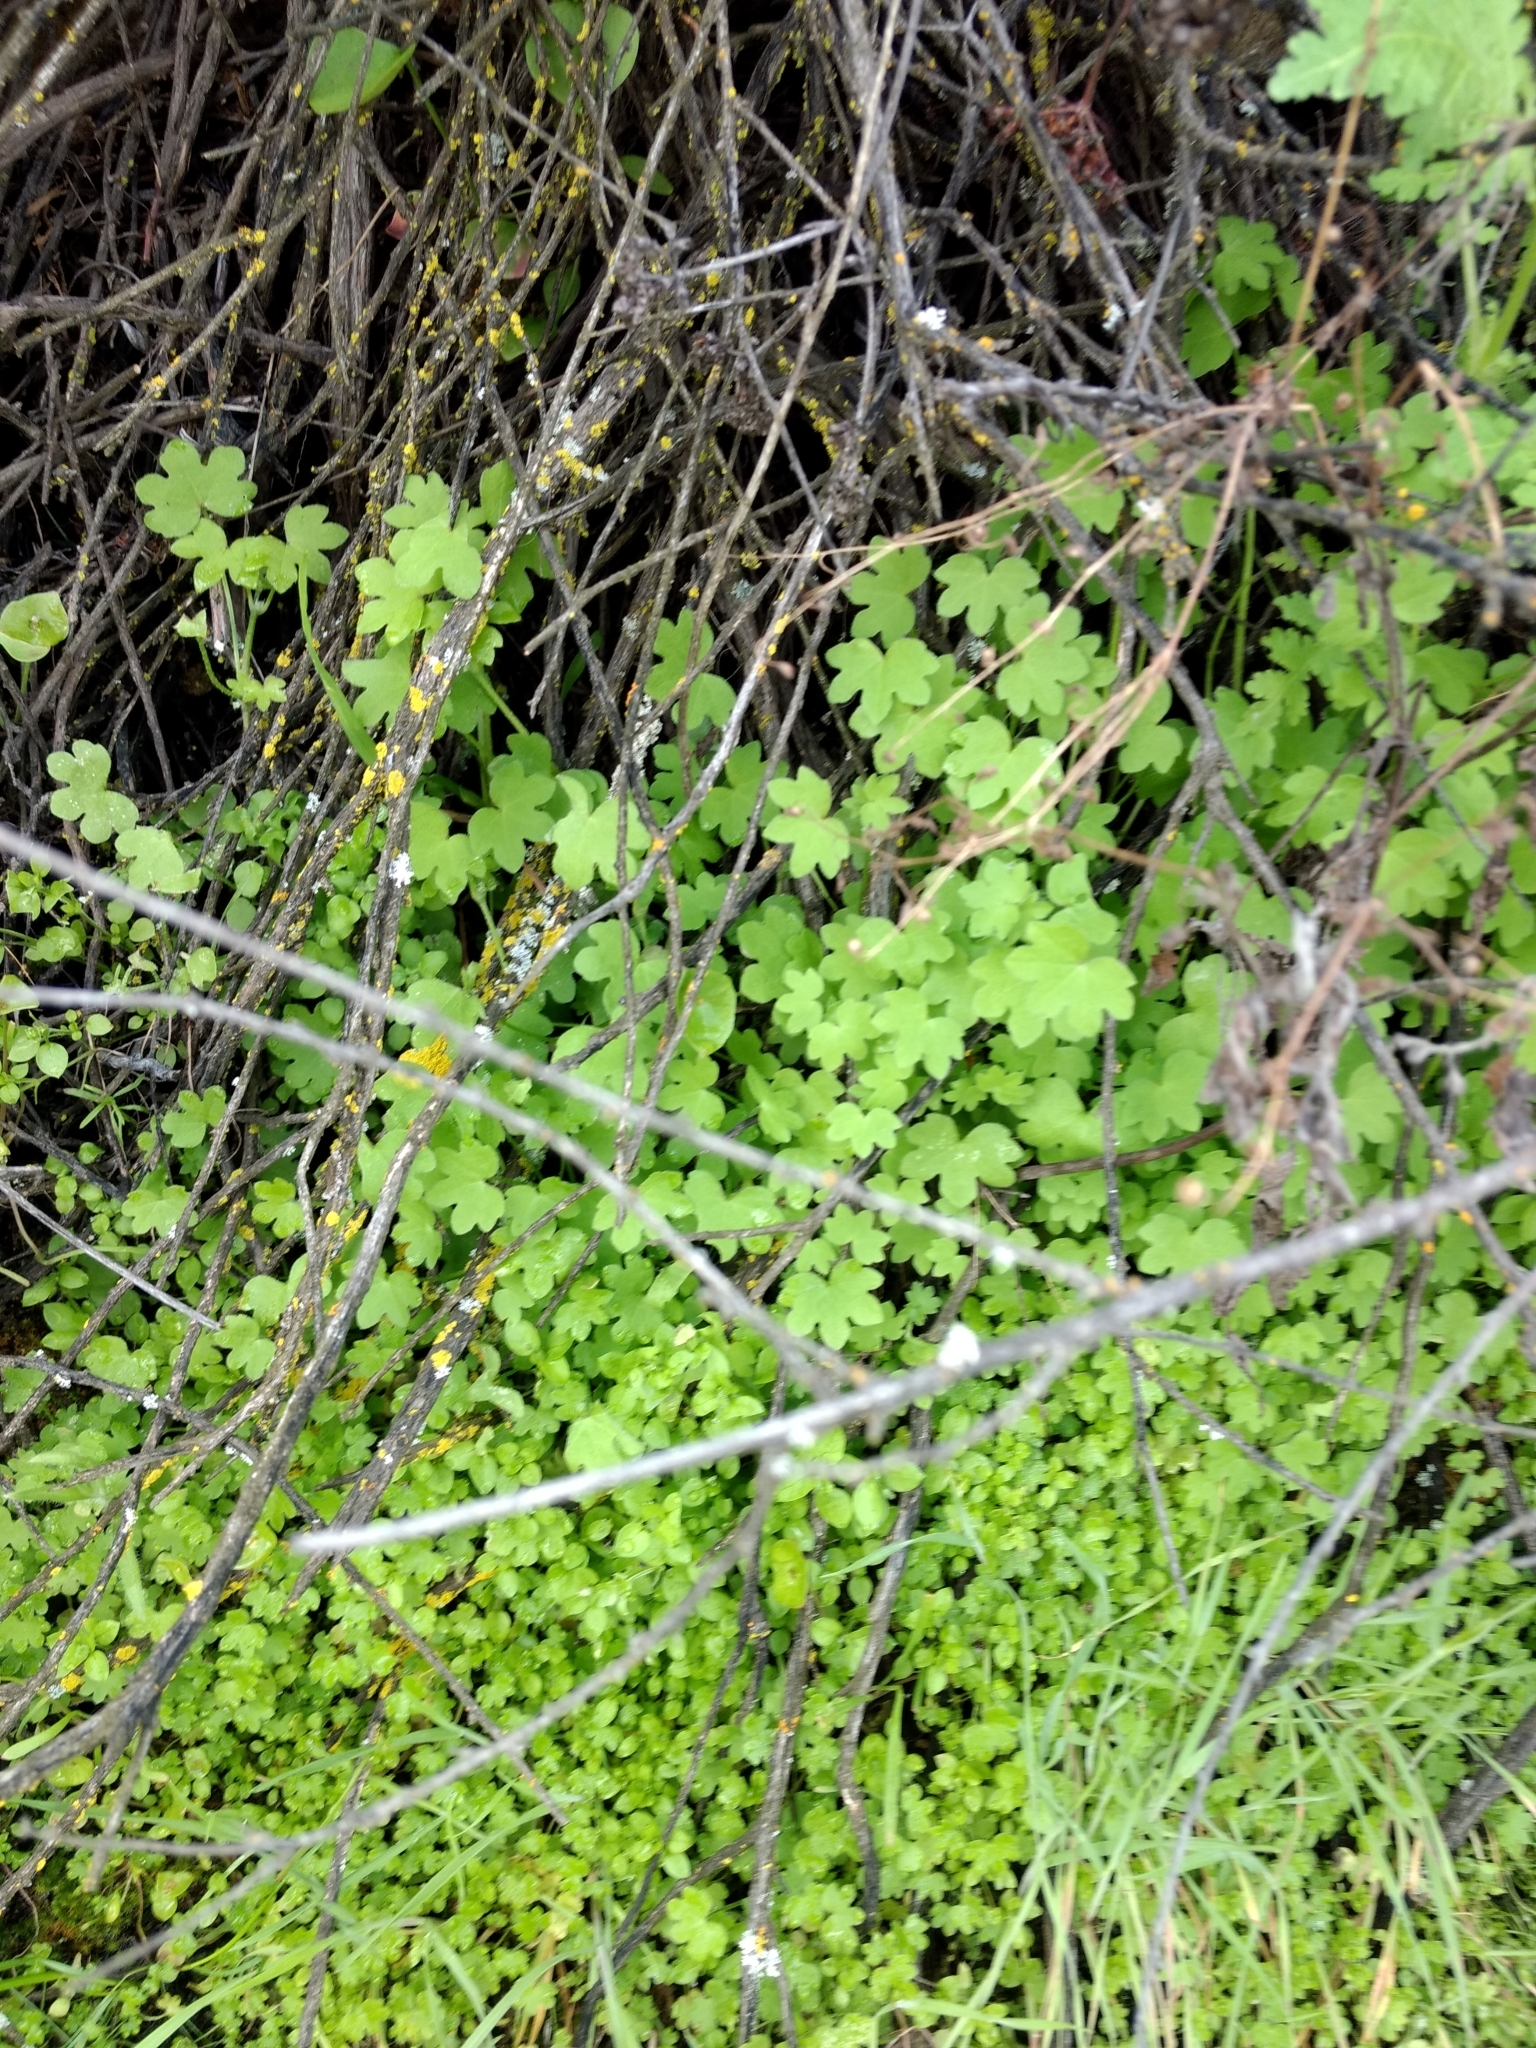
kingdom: Plantae
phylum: Tracheophyta
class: Magnoliopsida
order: Apiales
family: Apiaceae
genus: Bowlesia
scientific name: Bowlesia incana
